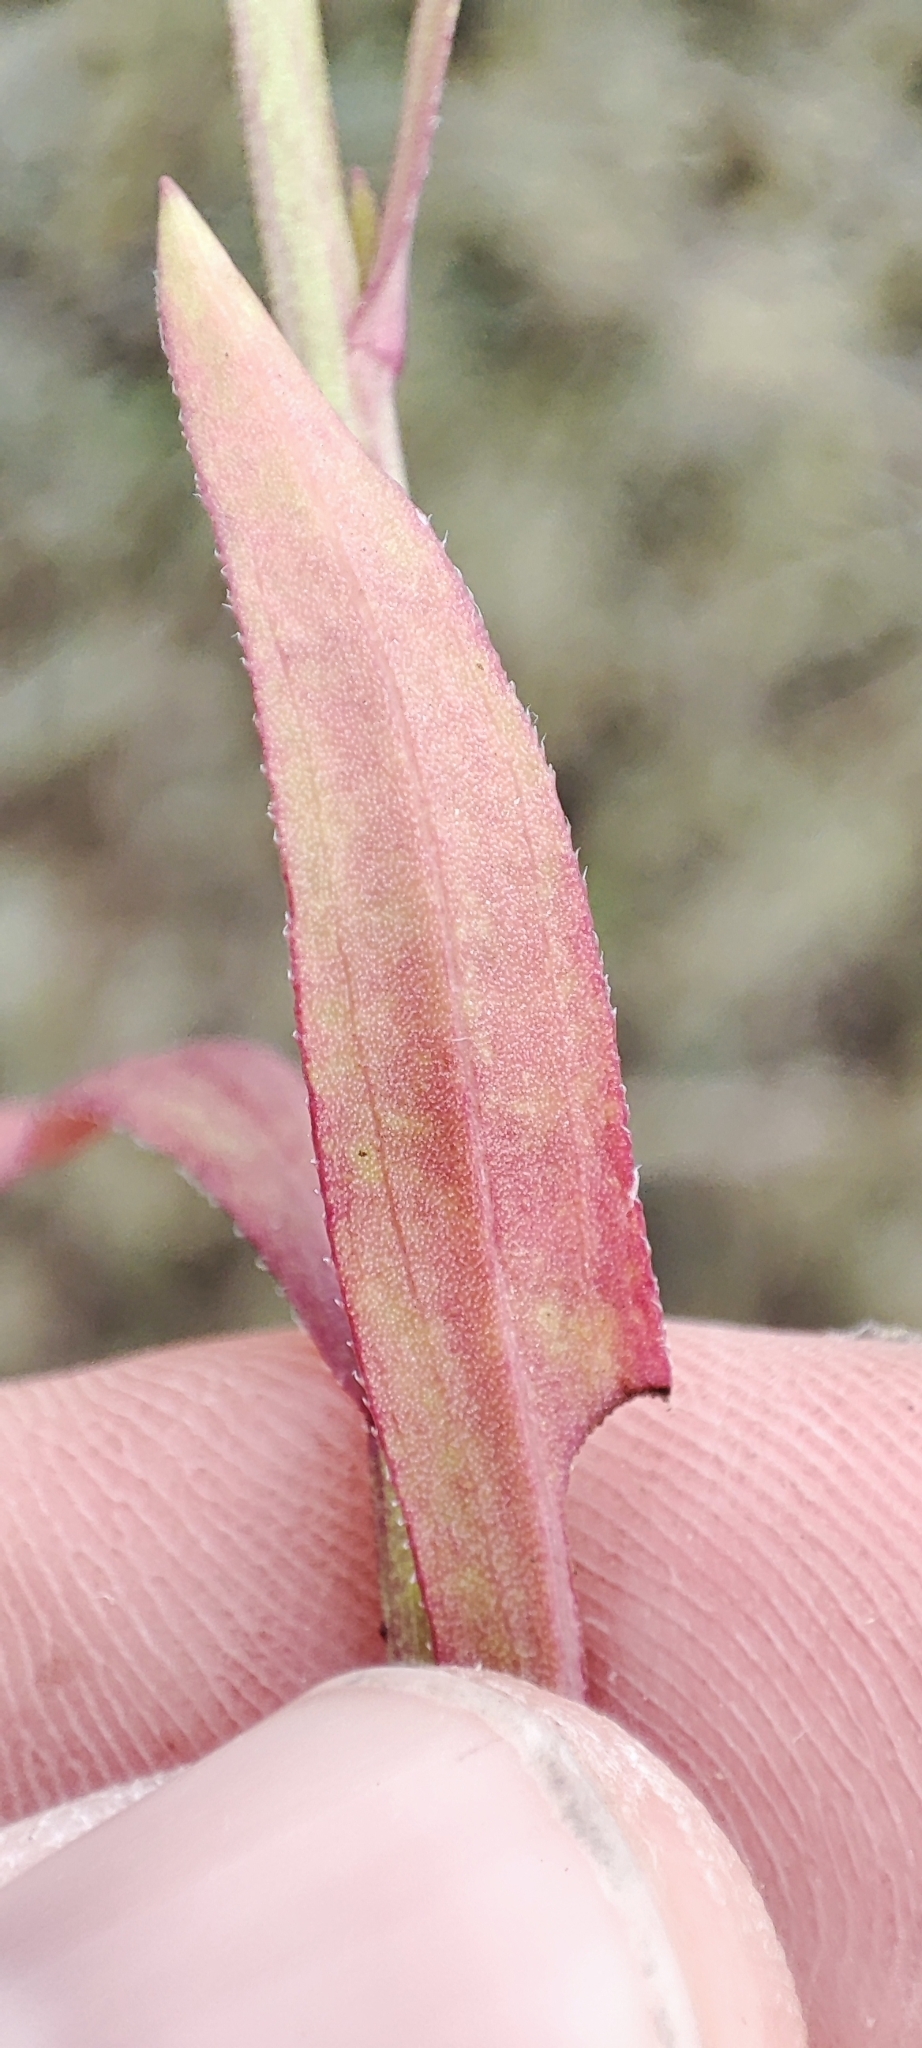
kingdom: Plantae
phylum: Tracheophyta
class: Magnoliopsida
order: Asterales
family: Asteraceae
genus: Tripolium
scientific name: Tripolium pannonicum
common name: Sea aster
